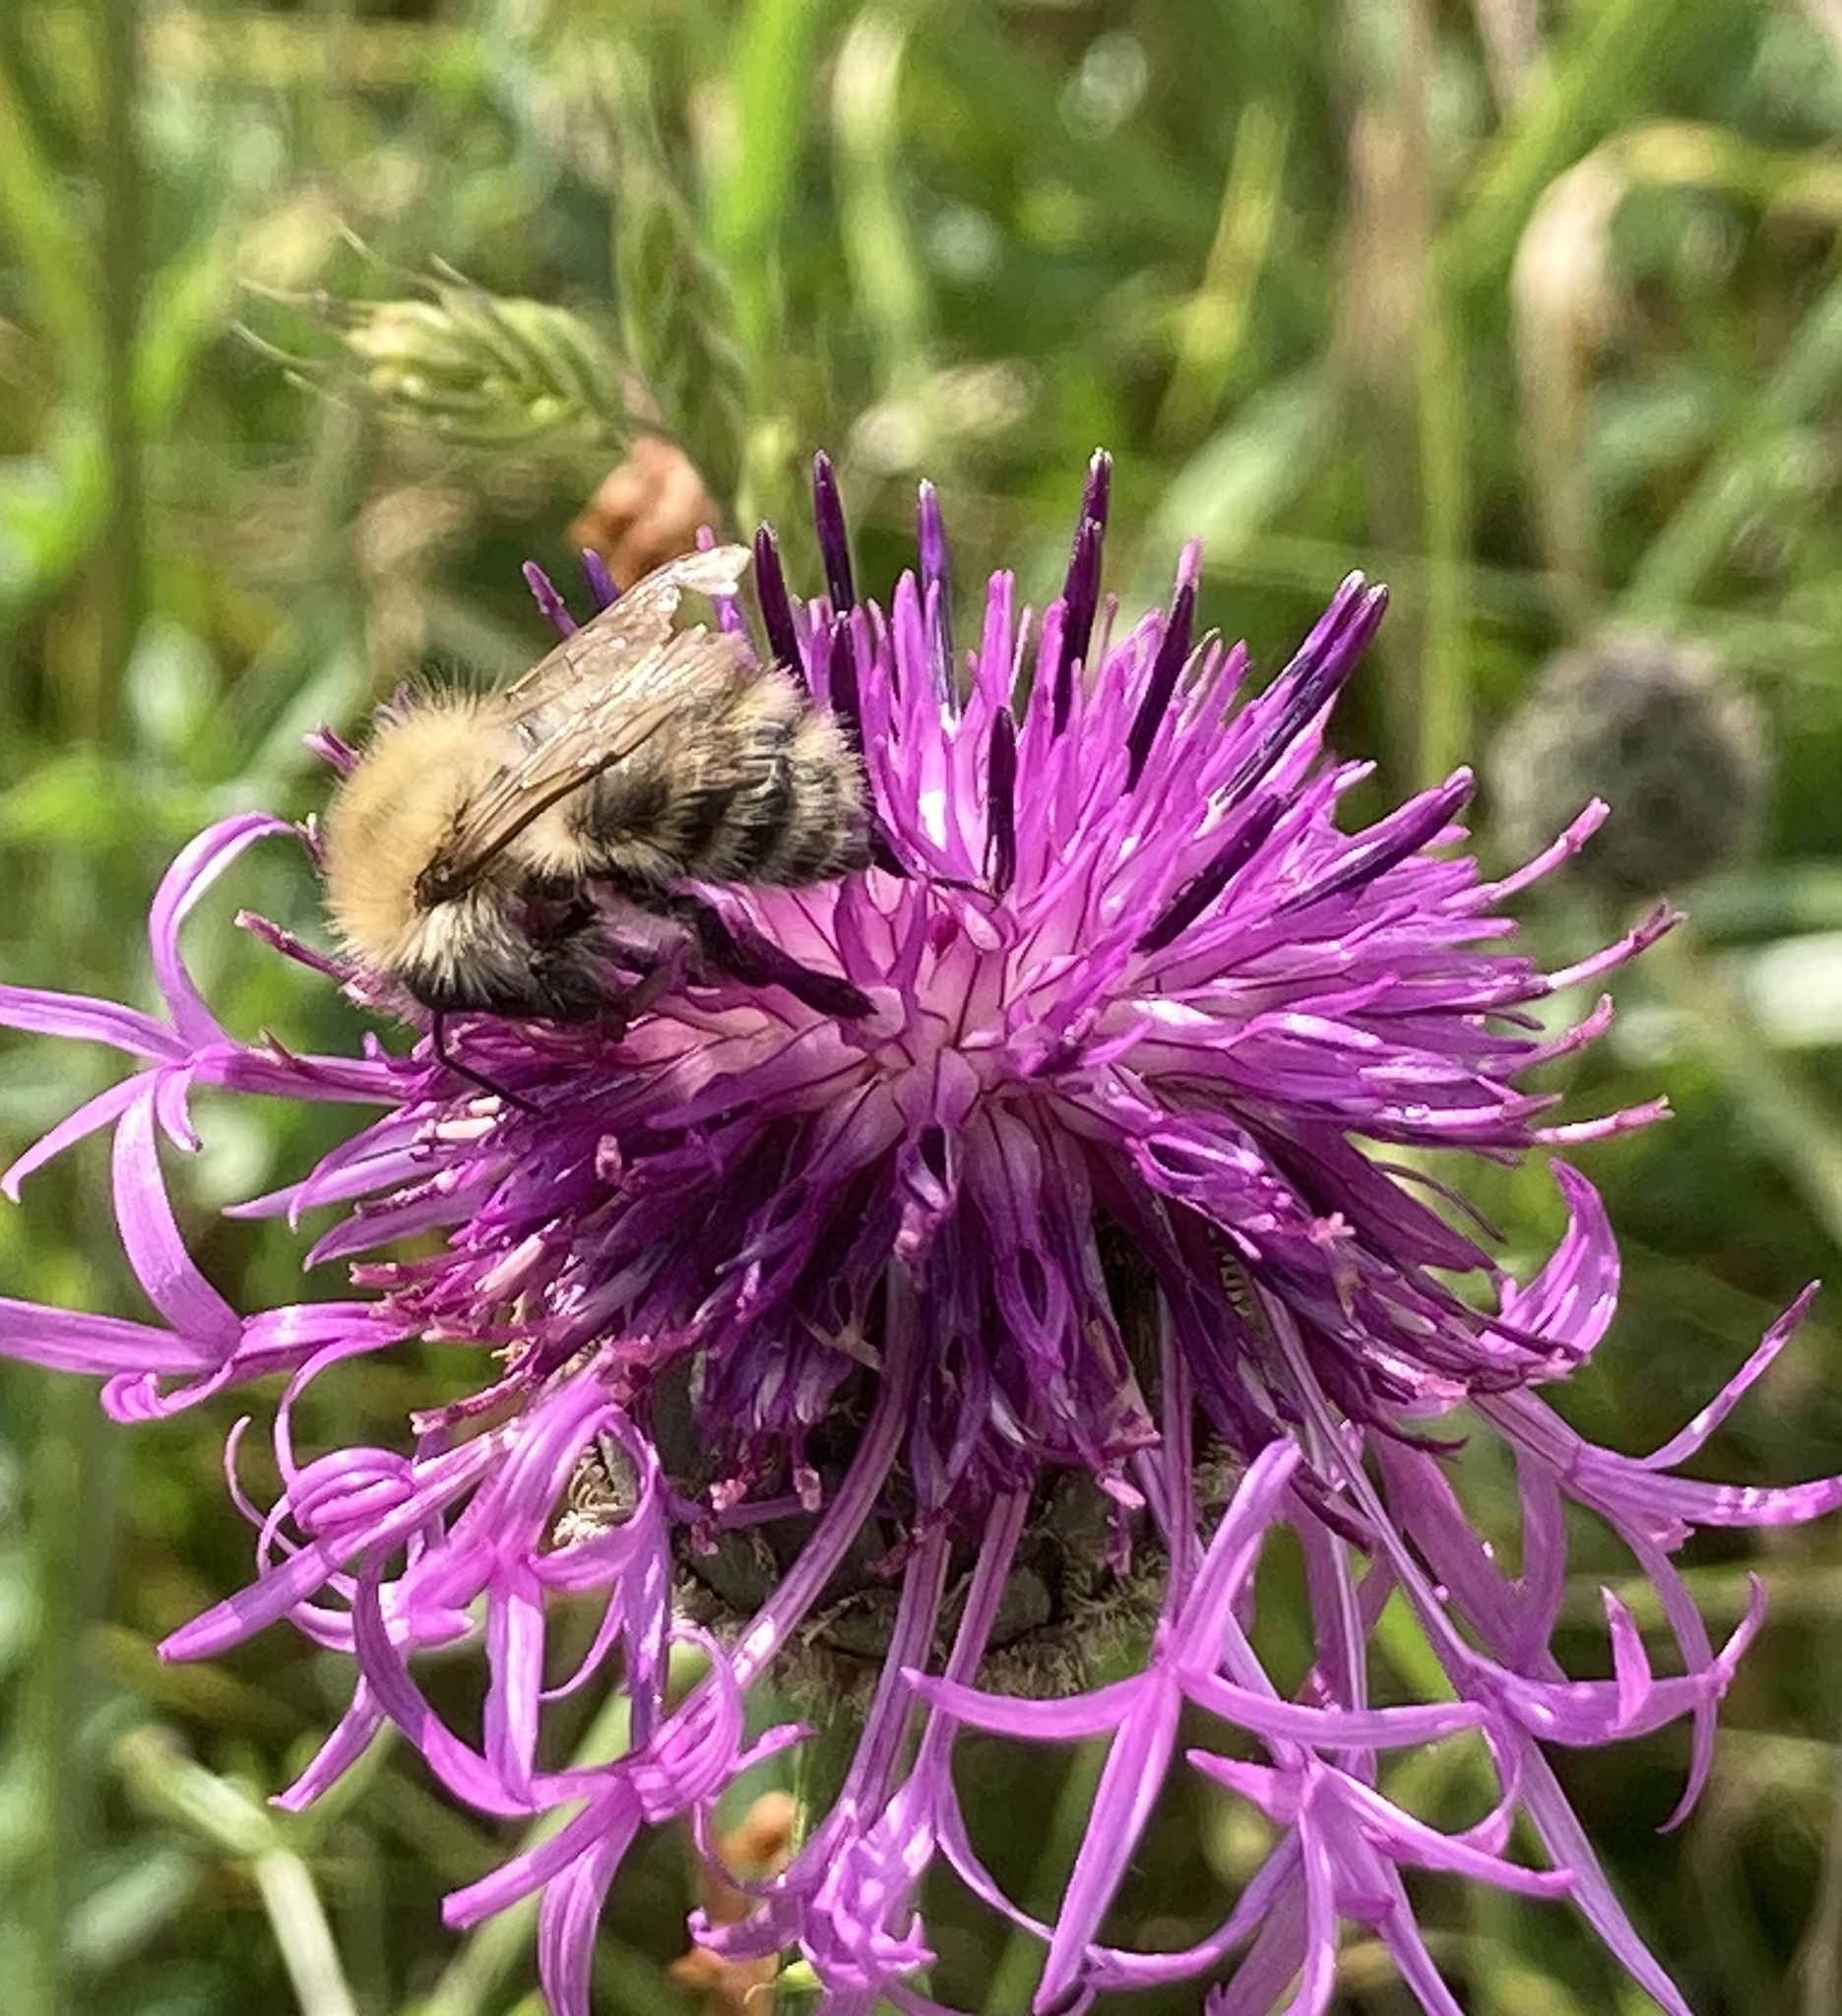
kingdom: Animalia
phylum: Arthropoda
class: Insecta
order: Hymenoptera
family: Apidae
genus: Bombus
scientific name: Bombus pascuorum
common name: Common carder bee
